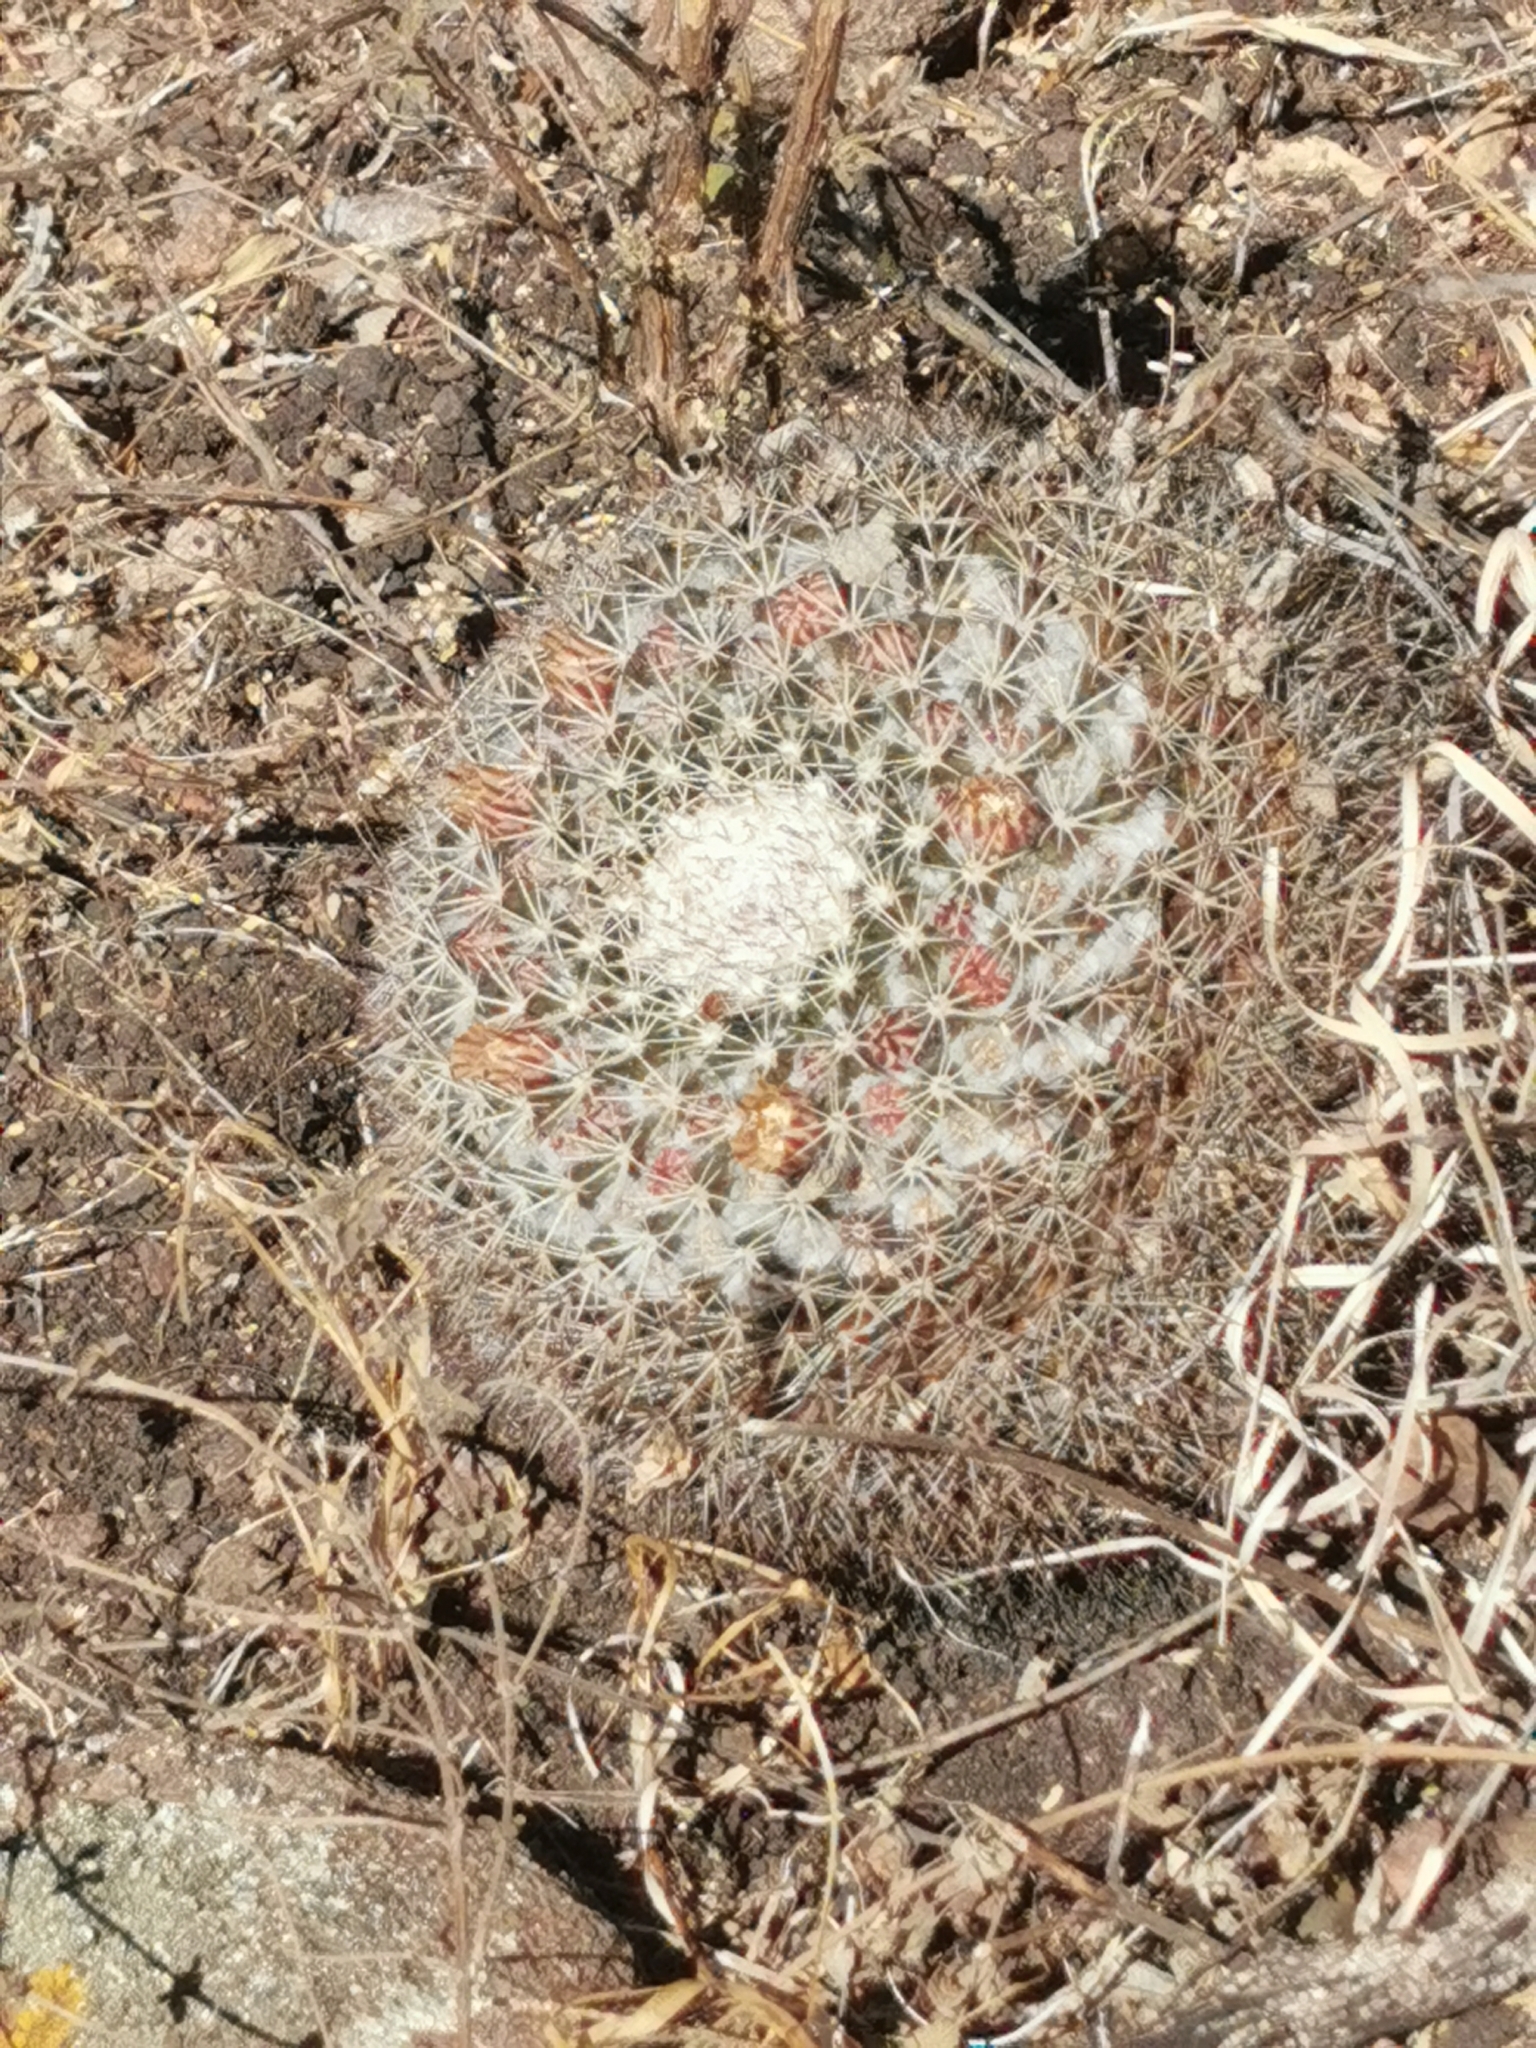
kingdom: Plantae
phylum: Tracheophyta
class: Magnoliopsida
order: Caryophyllales
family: Cactaceae
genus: Mammillaria
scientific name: Mammillaria wagneriana
